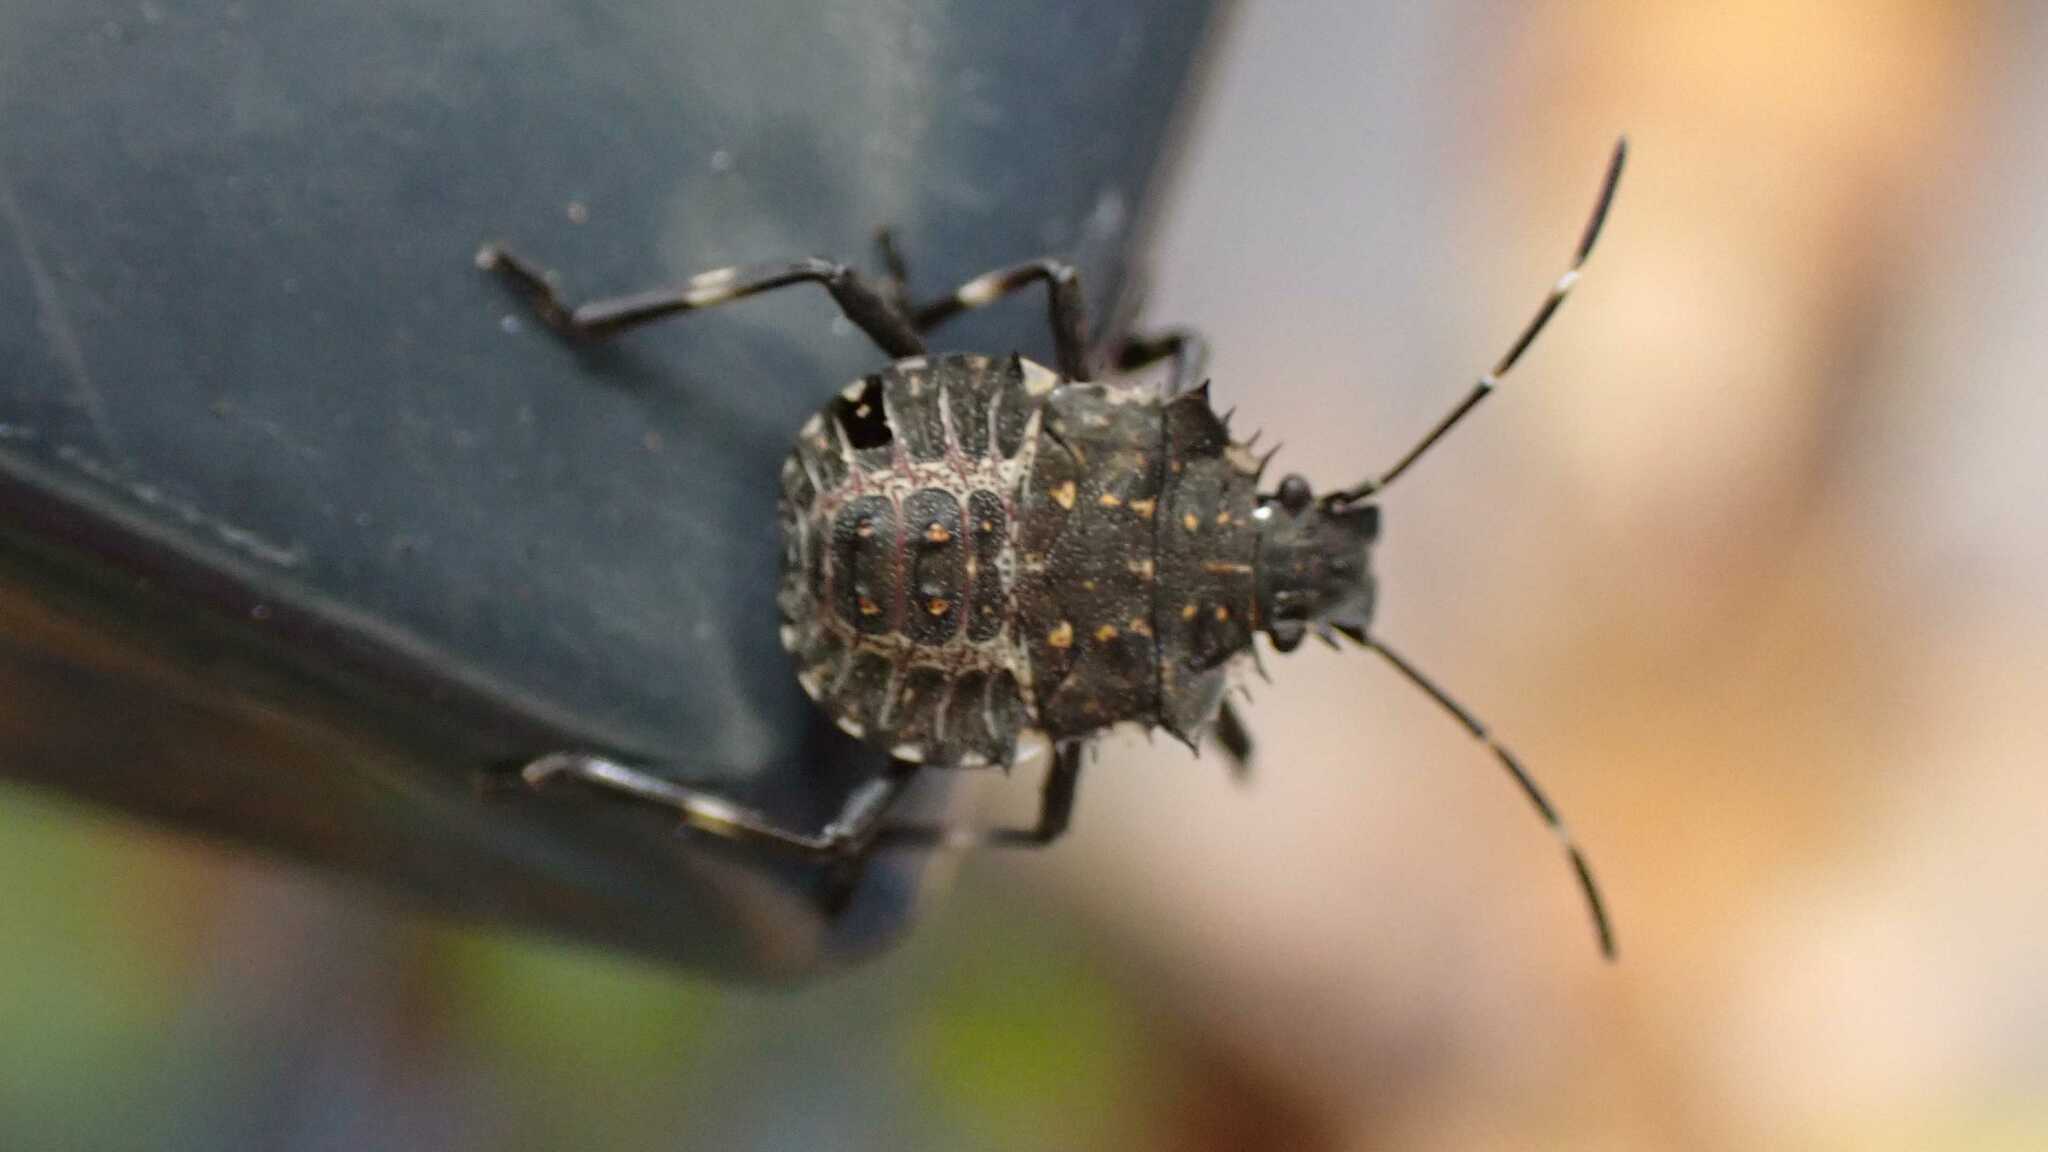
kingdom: Animalia
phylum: Arthropoda
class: Insecta
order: Hemiptera
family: Pentatomidae
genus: Halyomorpha
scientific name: Halyomorpha halys
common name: Brown marmorated stink bug
